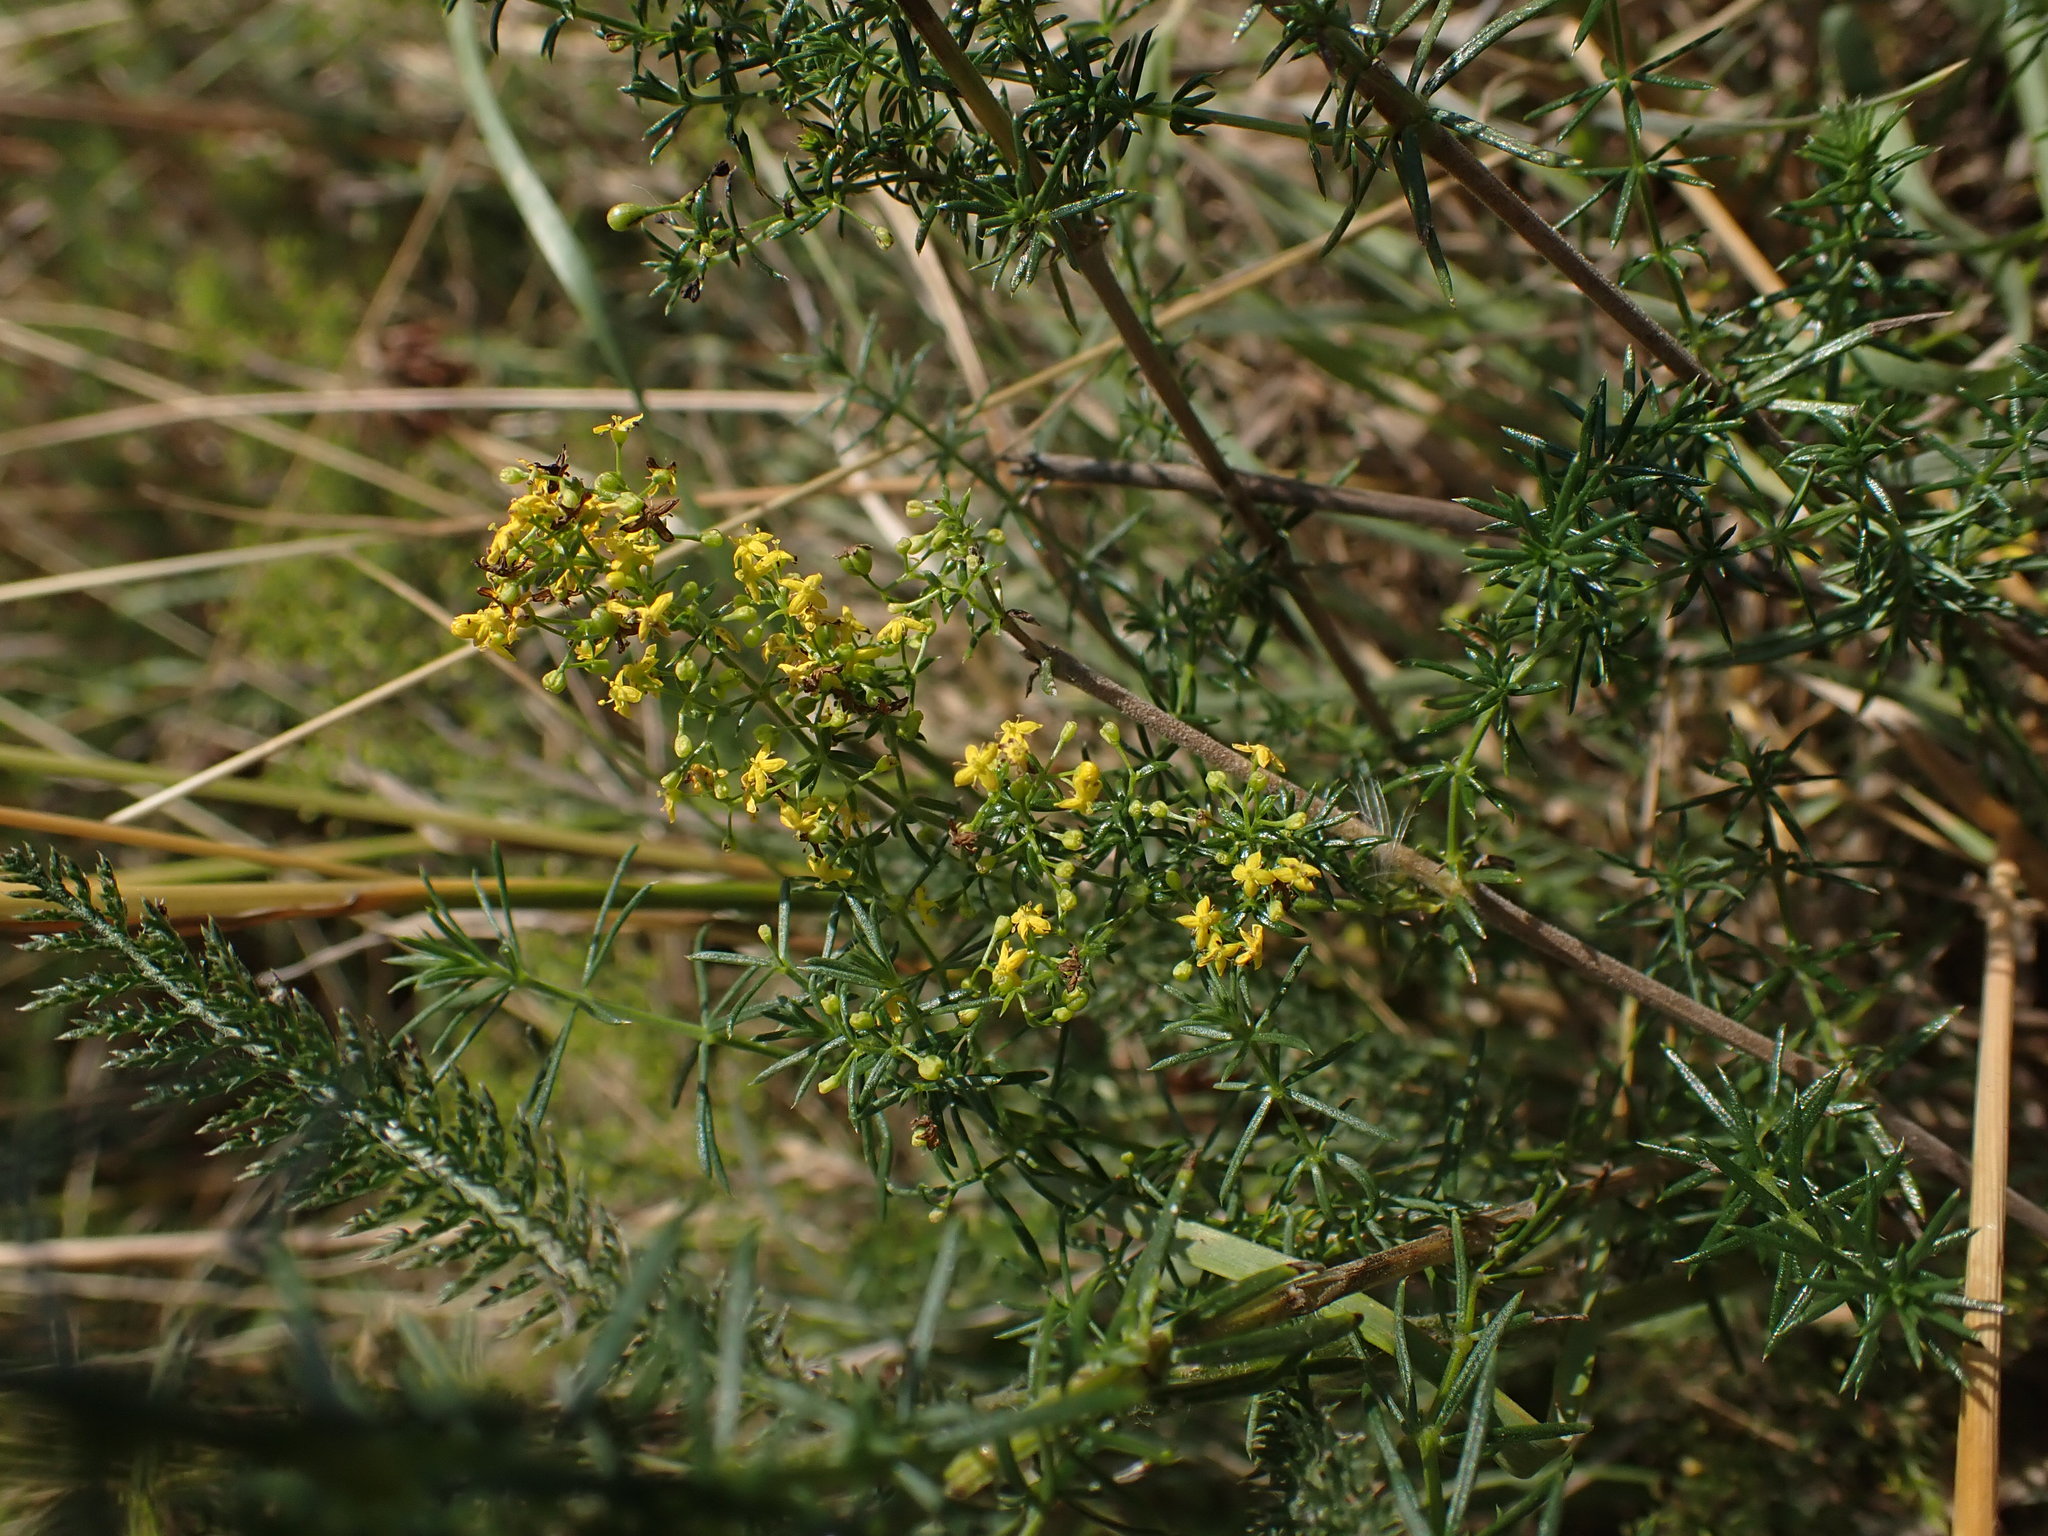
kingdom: Plantae
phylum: Tracheophyta
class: Magnoliopsida
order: Gentianales
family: Rubiaceae
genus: Galium
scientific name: Galium verum
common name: Lady's bedstraw
